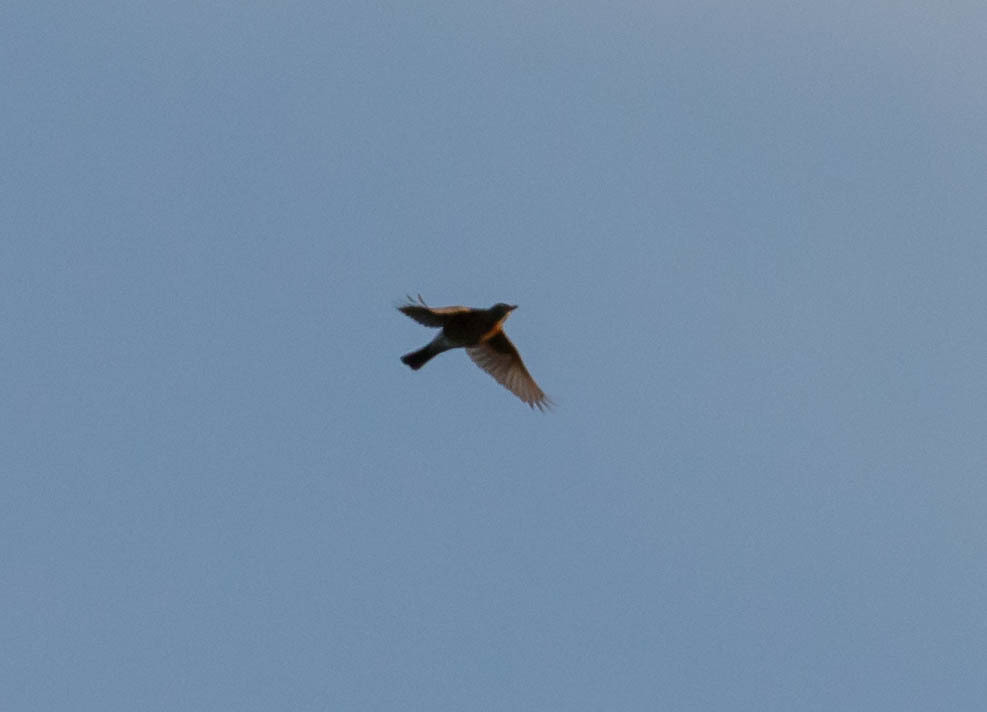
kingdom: Animalia
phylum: Chordata
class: Aves
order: Passeriformes
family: Turdidae
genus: Turdus
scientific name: Turdus migratorius
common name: American robin
